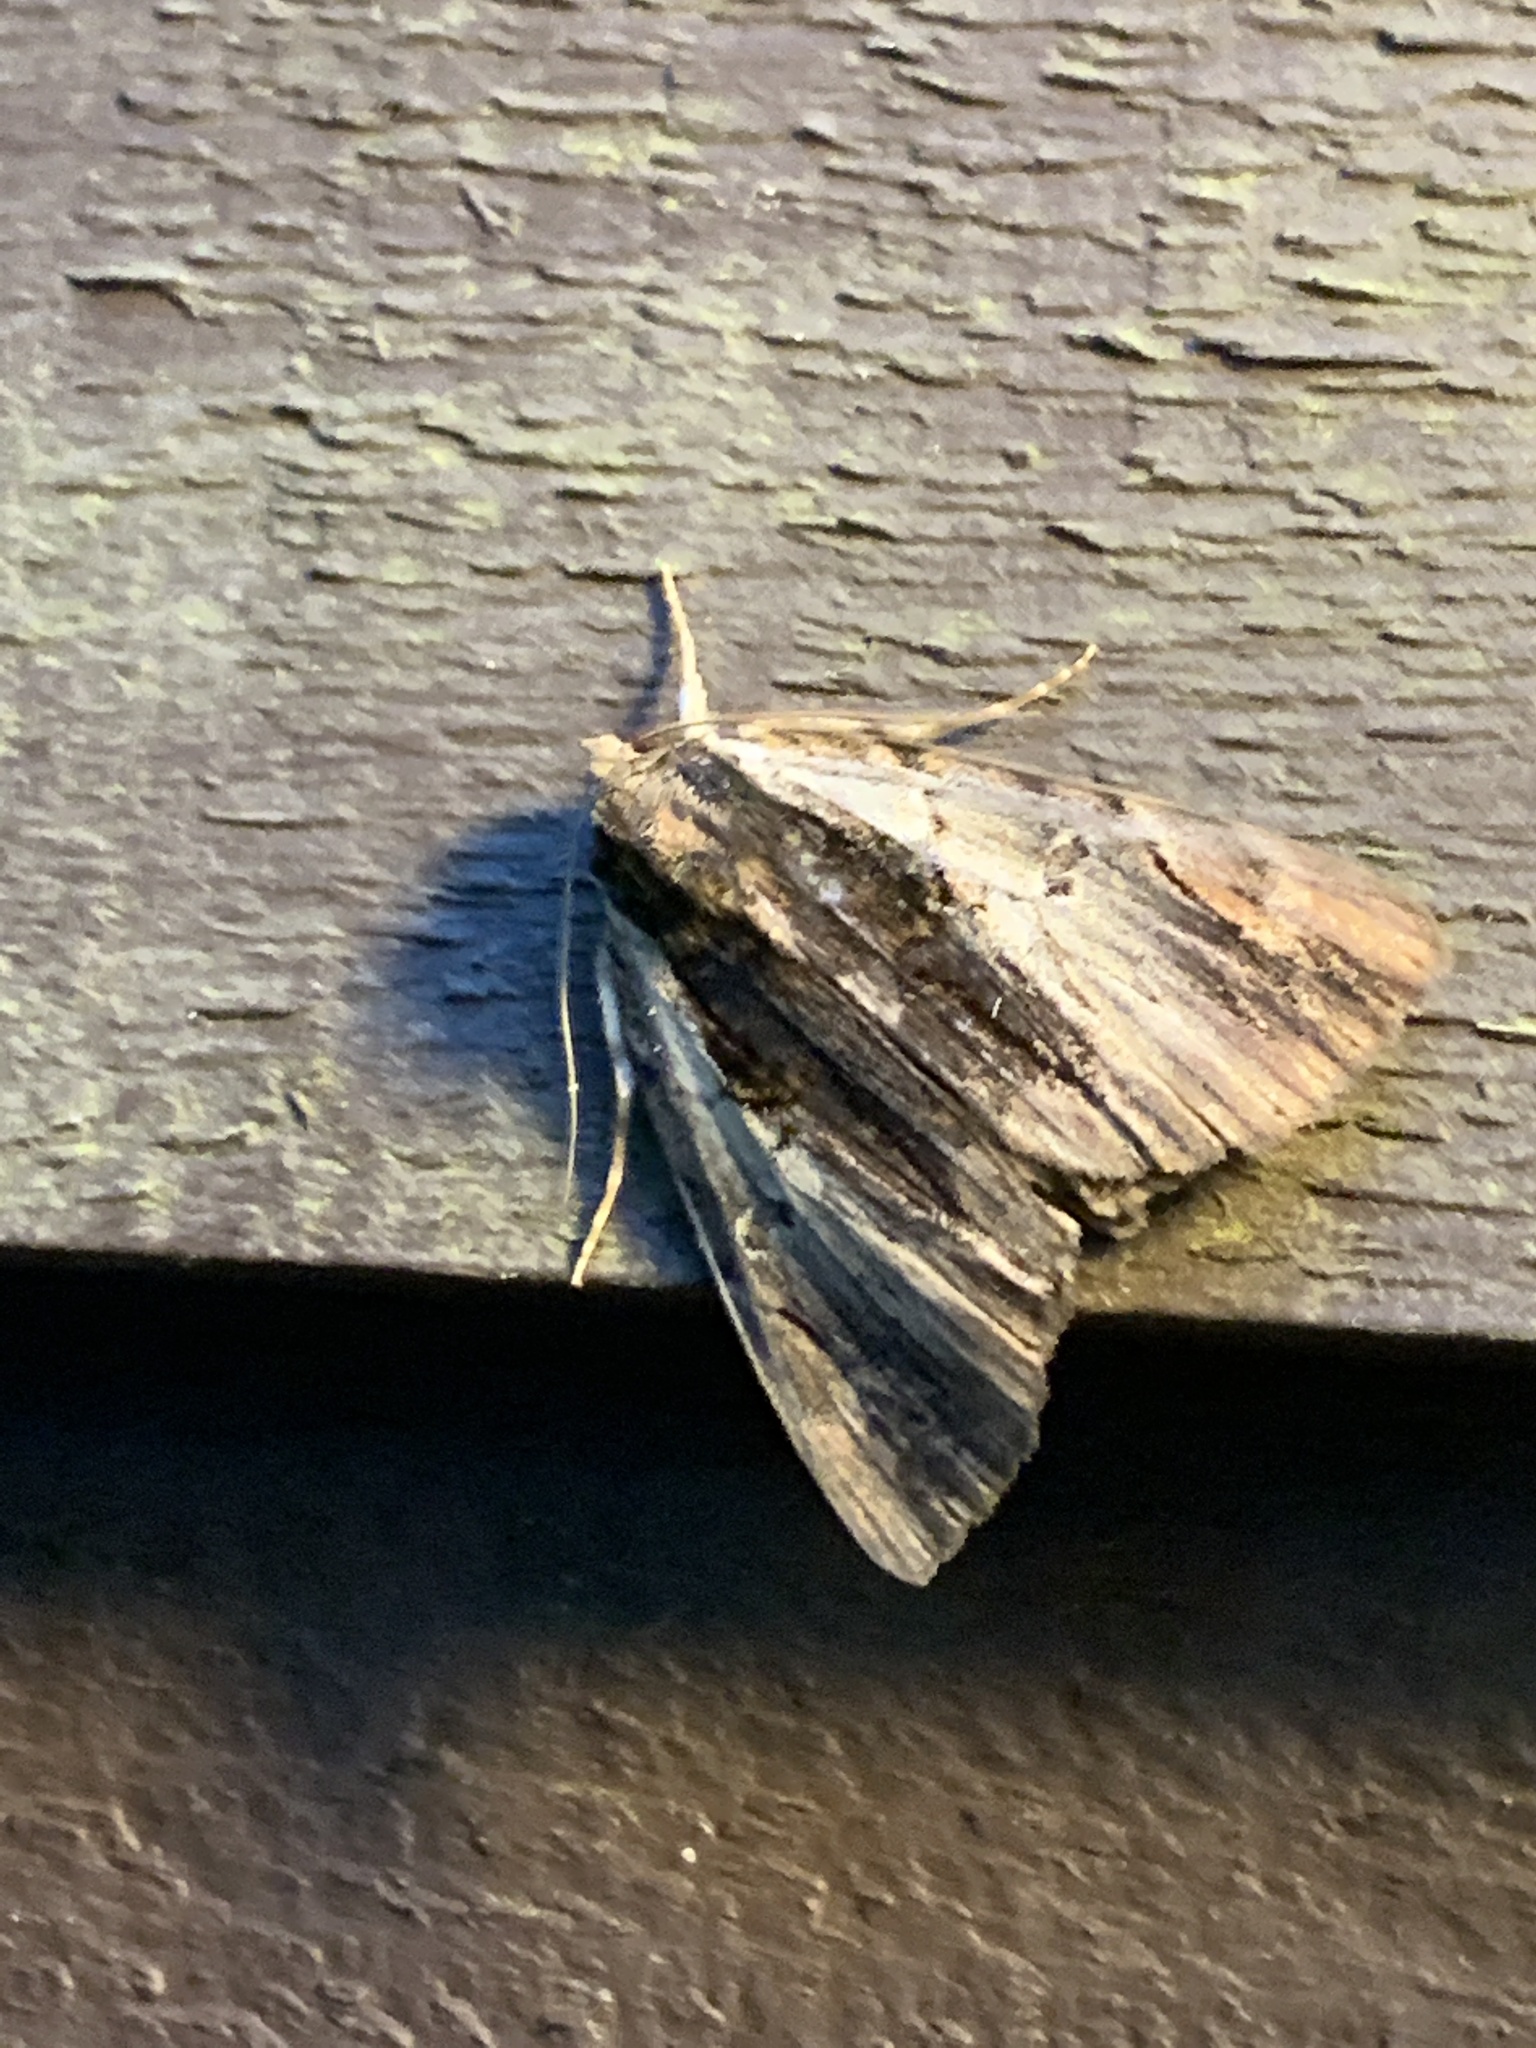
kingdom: Animalia
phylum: Arthropoda
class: Insecta
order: Lepidoptera
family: Erebidae
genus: Catocala
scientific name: Catocala ultronia
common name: Ultronia underwing
